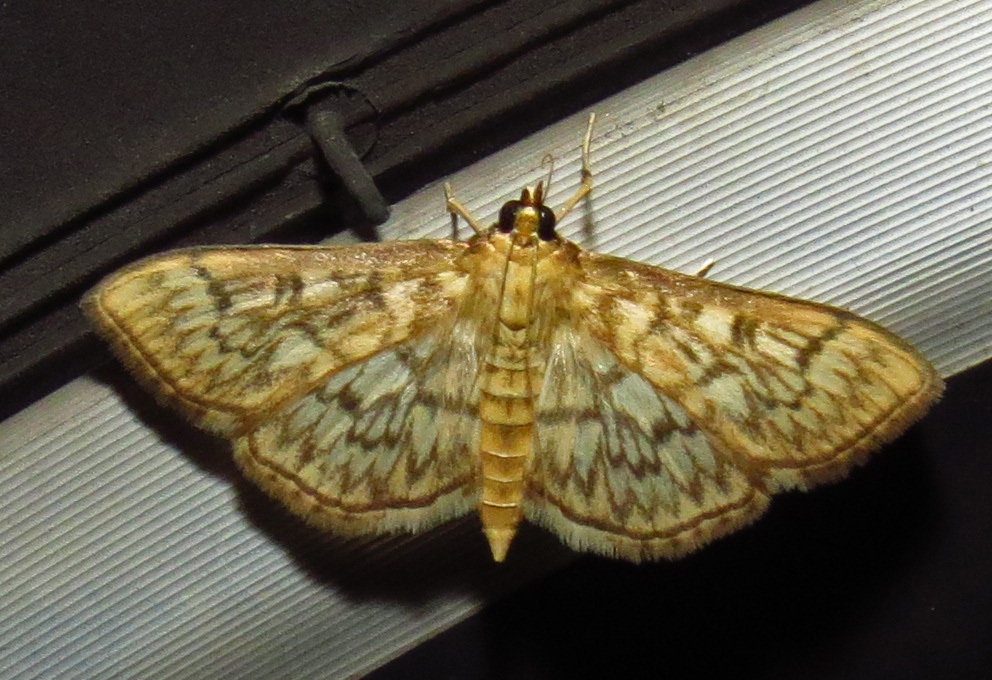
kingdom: Animalia
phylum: Arthropoda
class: Insecta
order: Lepidoptera
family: Crambidae
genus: Herpetogramma
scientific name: Herpetogramma pertextalis
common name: Bold-feathered grass moth
